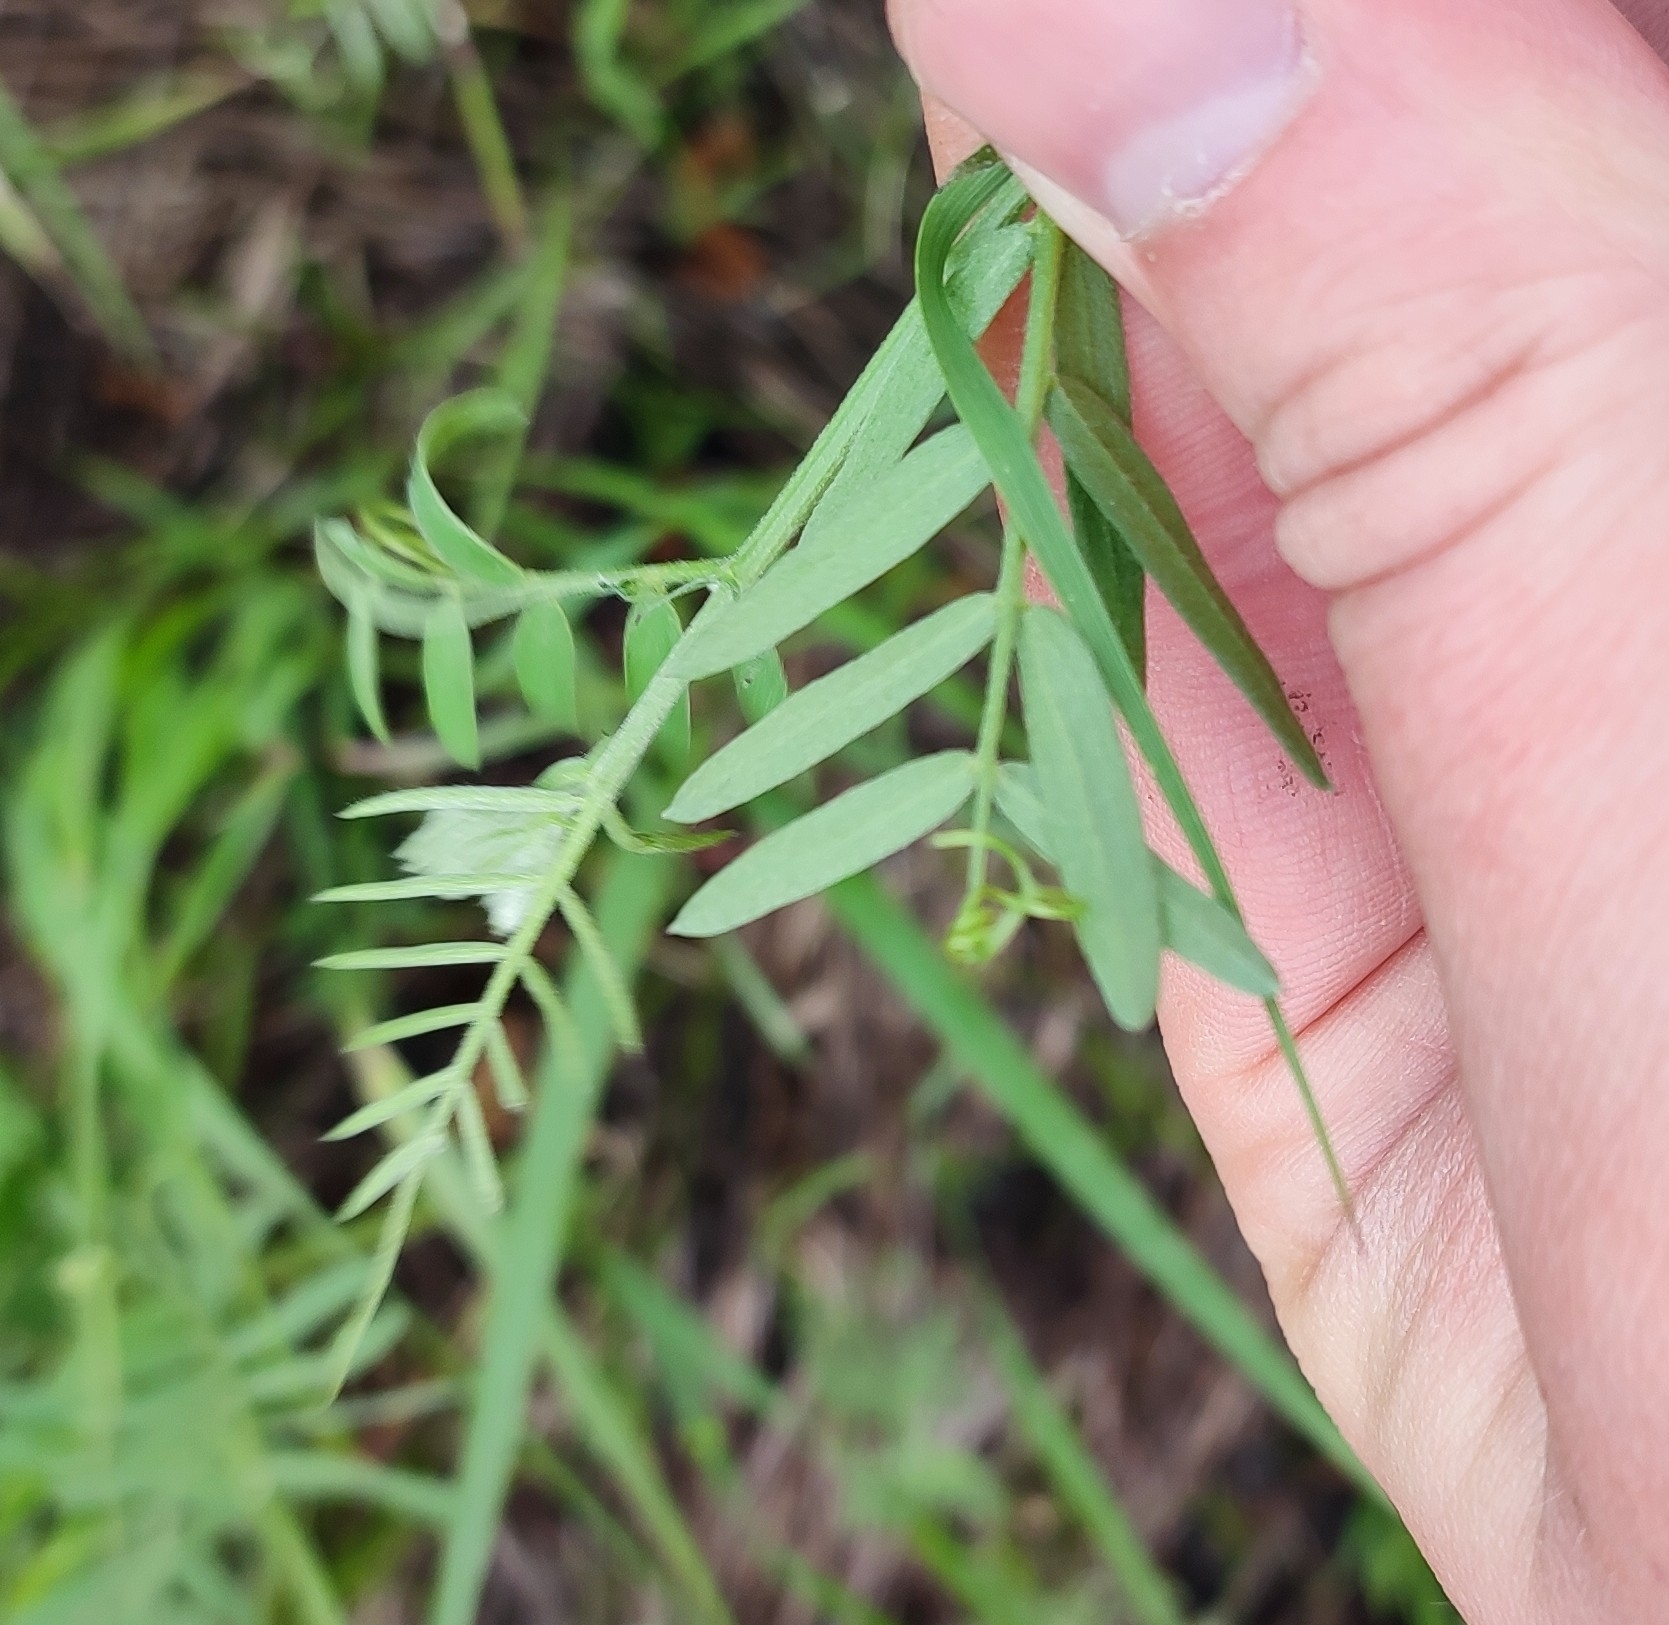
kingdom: Plantae
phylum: Tracheophyta
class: Magnoliopsida
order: Fabales
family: Fabaceae
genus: Vicia
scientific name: Vicia cracca
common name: Bird vetch
